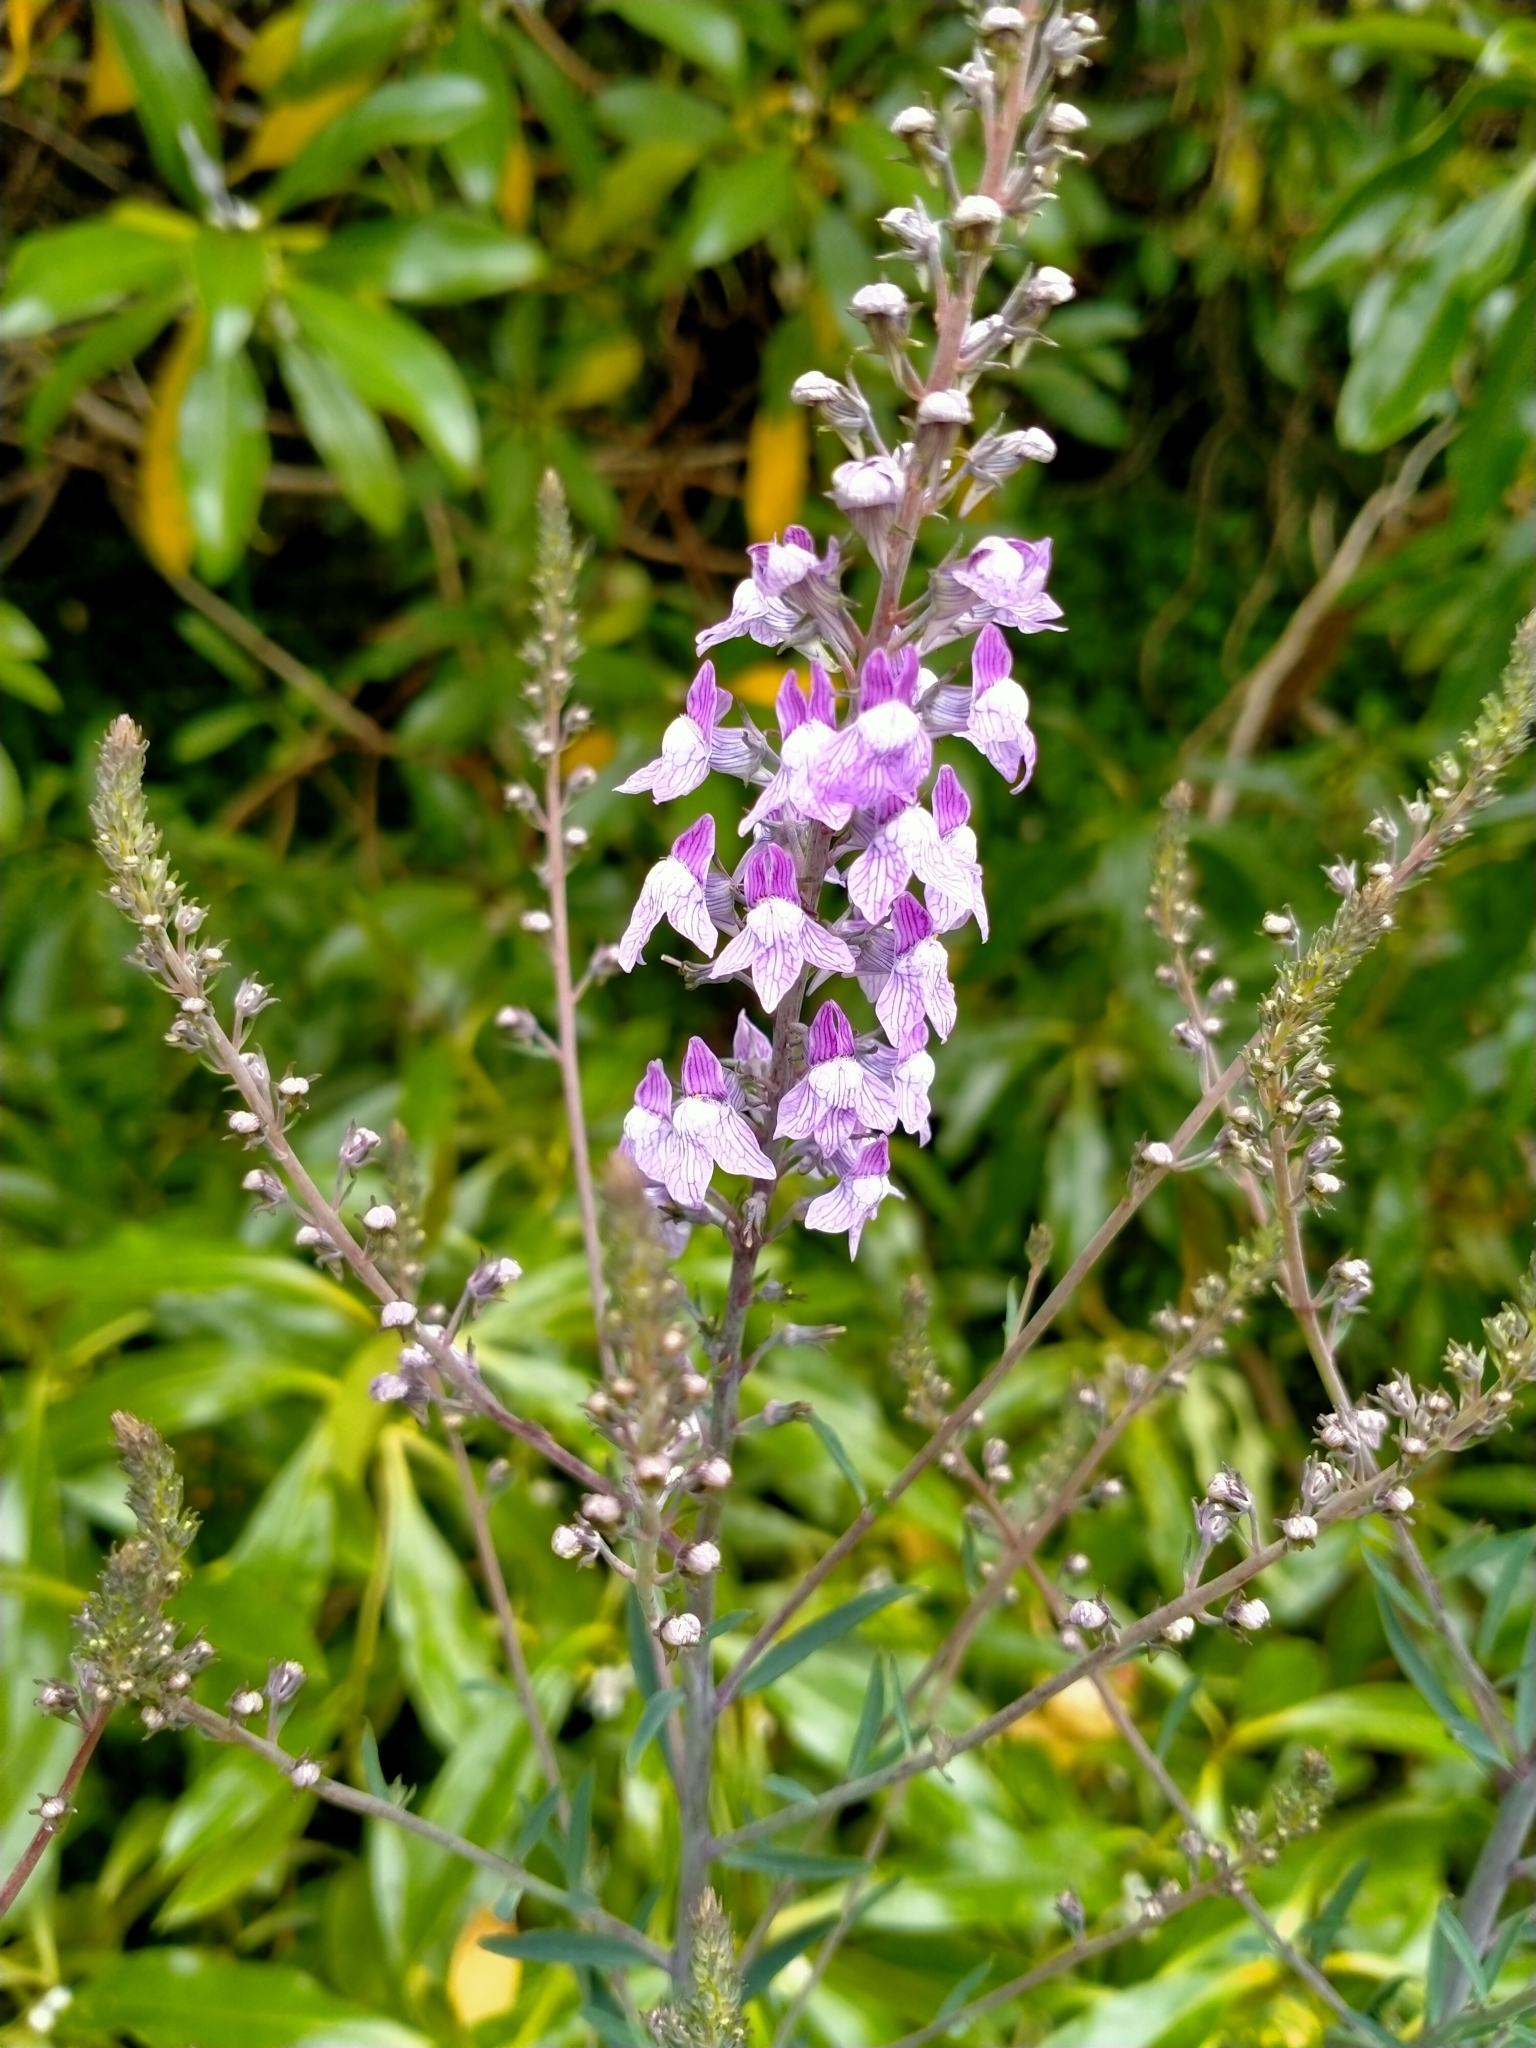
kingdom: Plantae
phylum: Tracheophyta
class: Magnoliopsida
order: Lamiales
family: Plantaginaceae
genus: Linaria
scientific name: Linaria purpurea
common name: Purple toadflax
